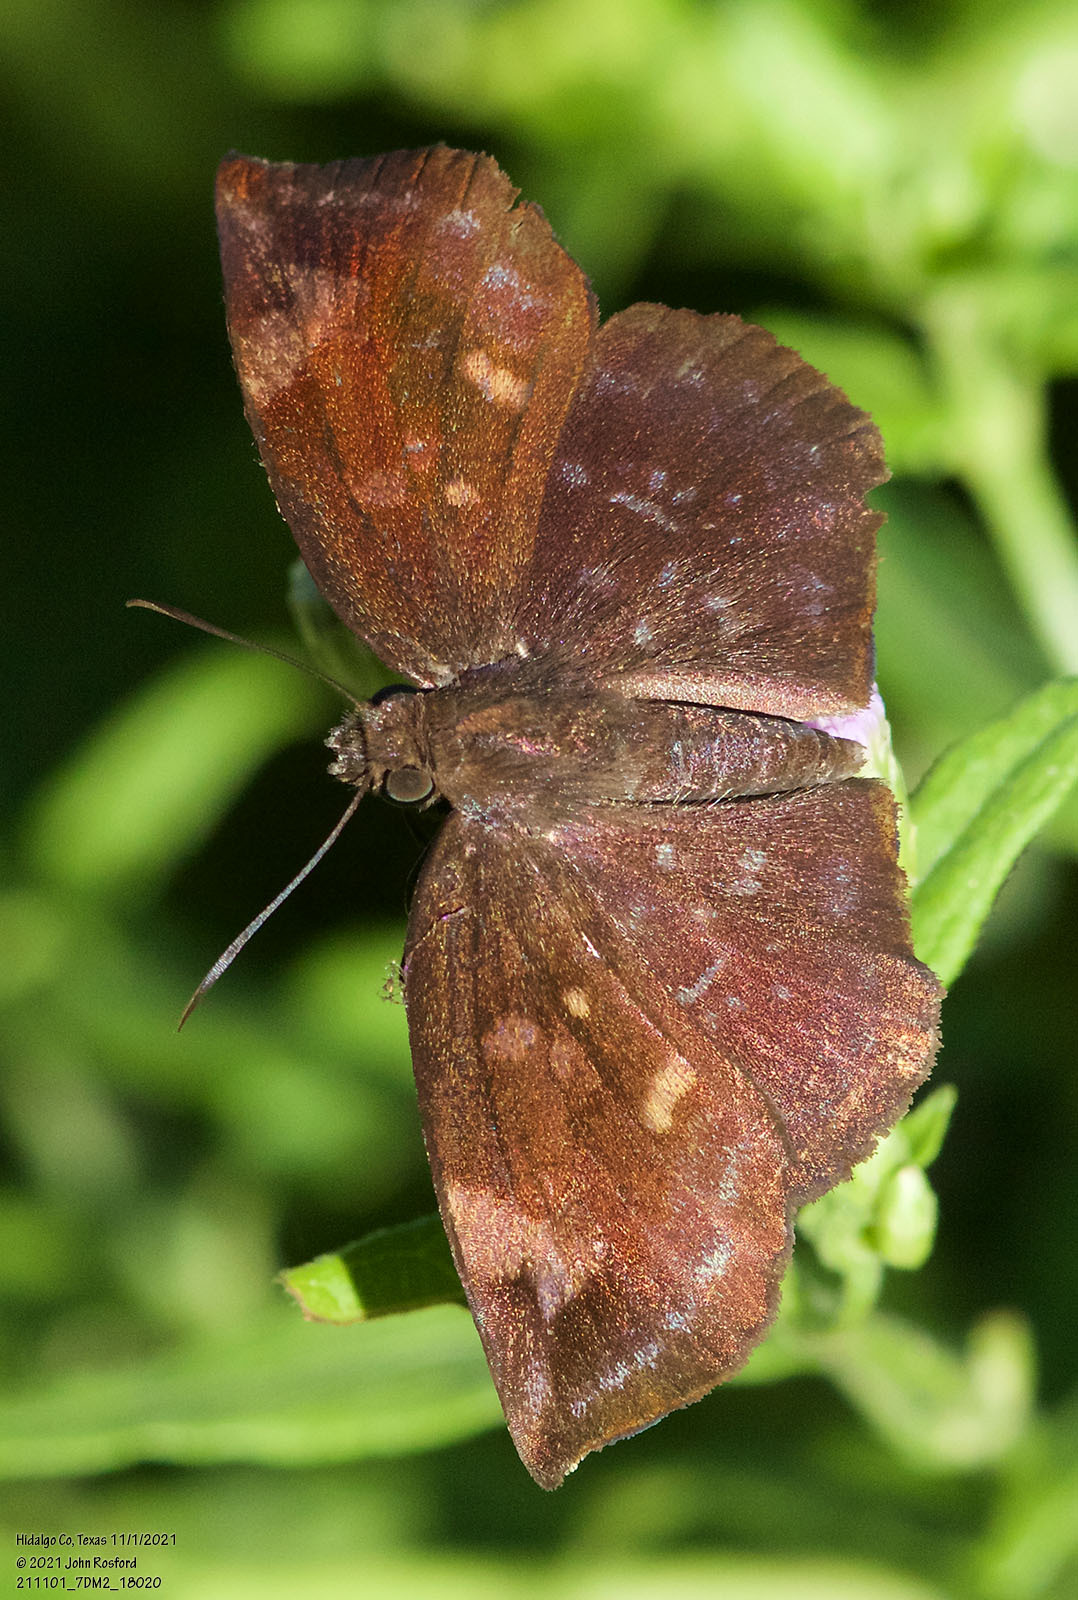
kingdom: Animalia
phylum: Arthropoda
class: Insecta
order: Lepidoptera
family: Hesperiidae
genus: Achlyodes
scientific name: Achlyodes thraso
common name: Sickle-winged skipper
